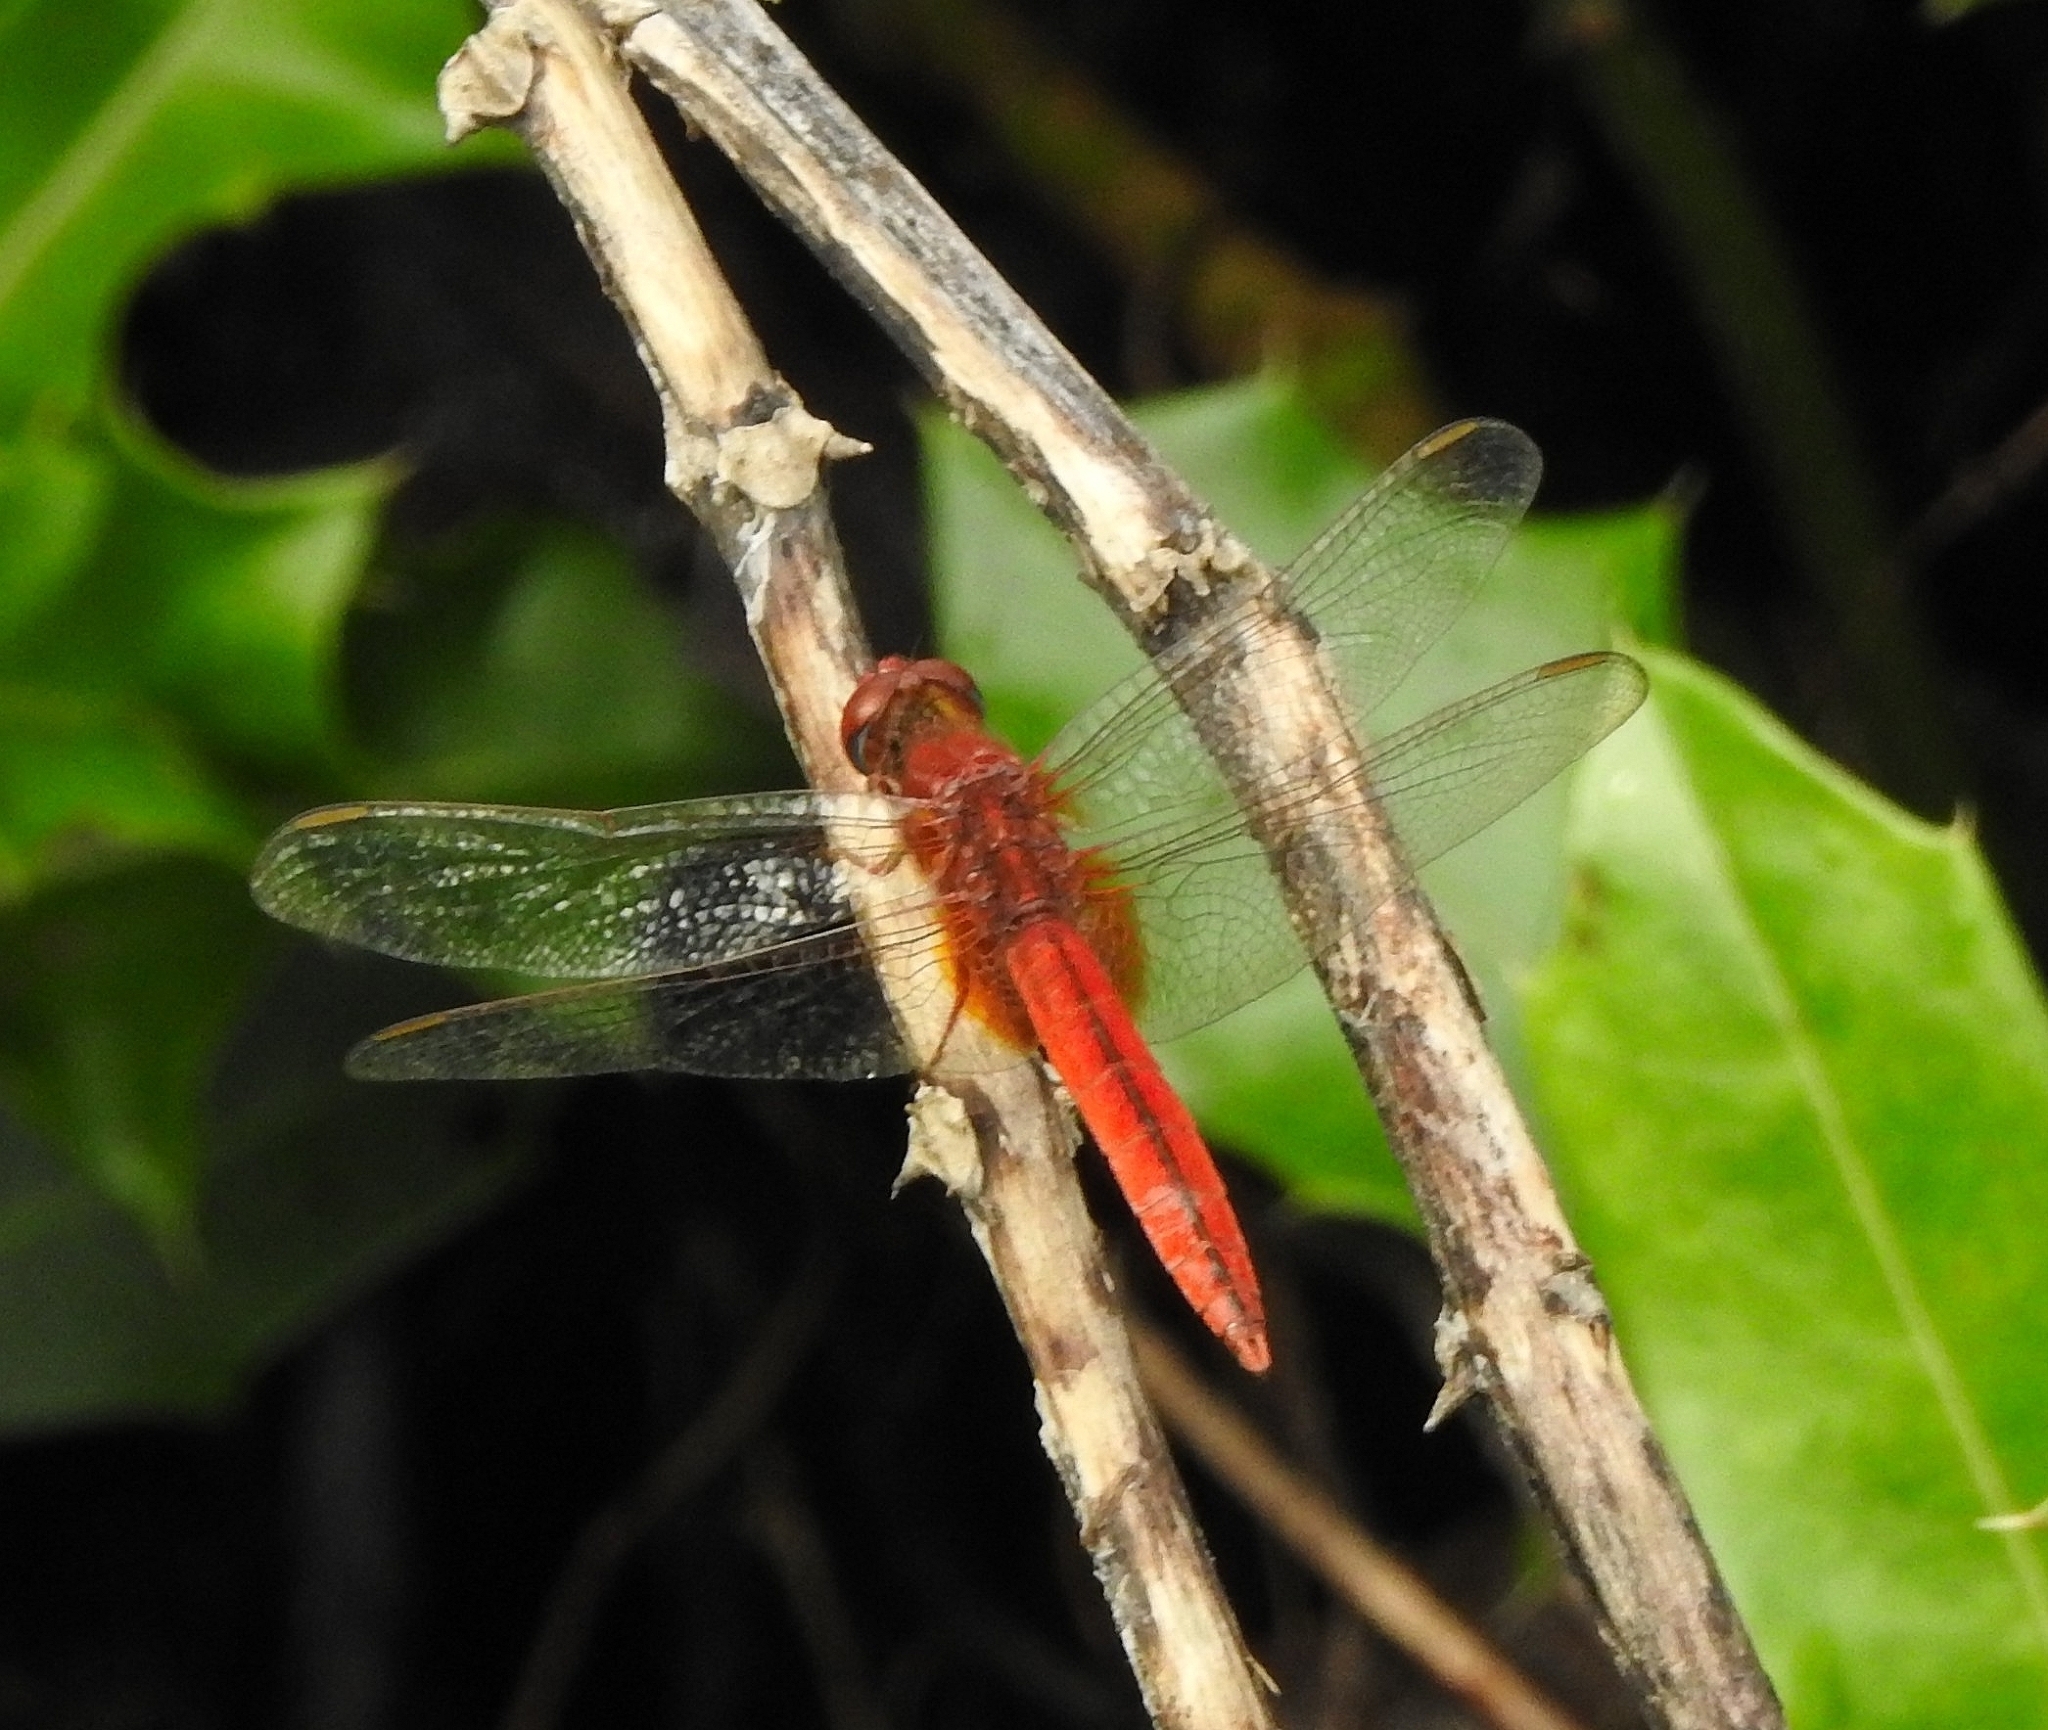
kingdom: Animalia
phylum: Arthropoda
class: Insecta
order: Odonata
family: Libellulidae
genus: Crocothemis
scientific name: Crocothemis servilia
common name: Scarlet skimmer
